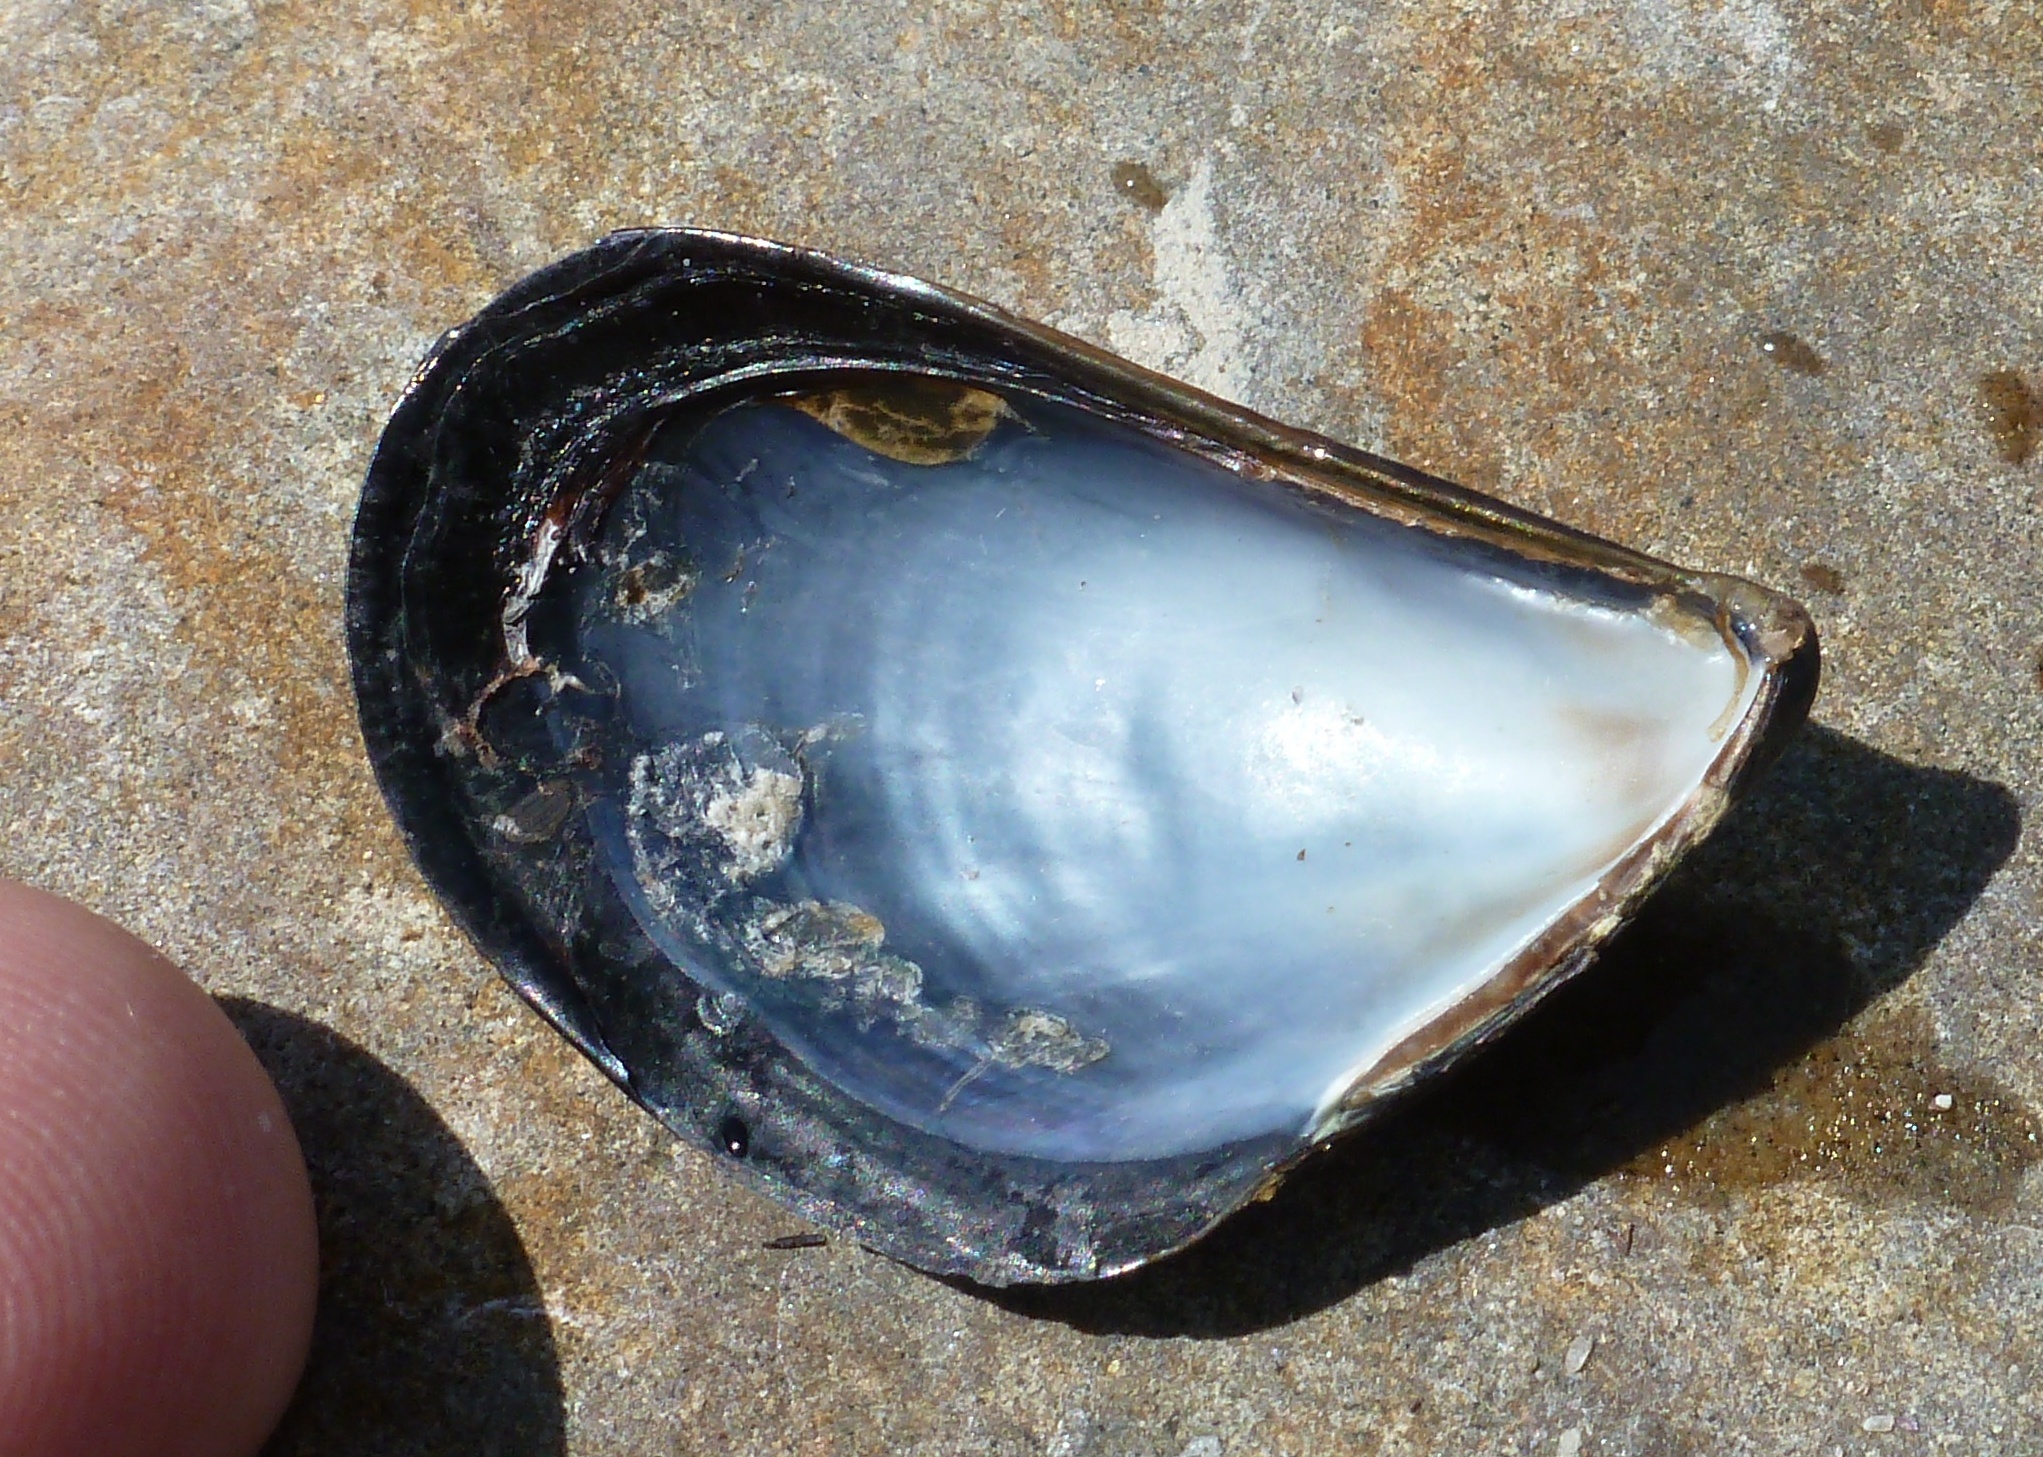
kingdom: Animalia
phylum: Mollusca
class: Bivalvia
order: Mytilida
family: Mytilidae
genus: Mytilus
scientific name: Mytilus galloprovincialis
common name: Mediterranean mussel
